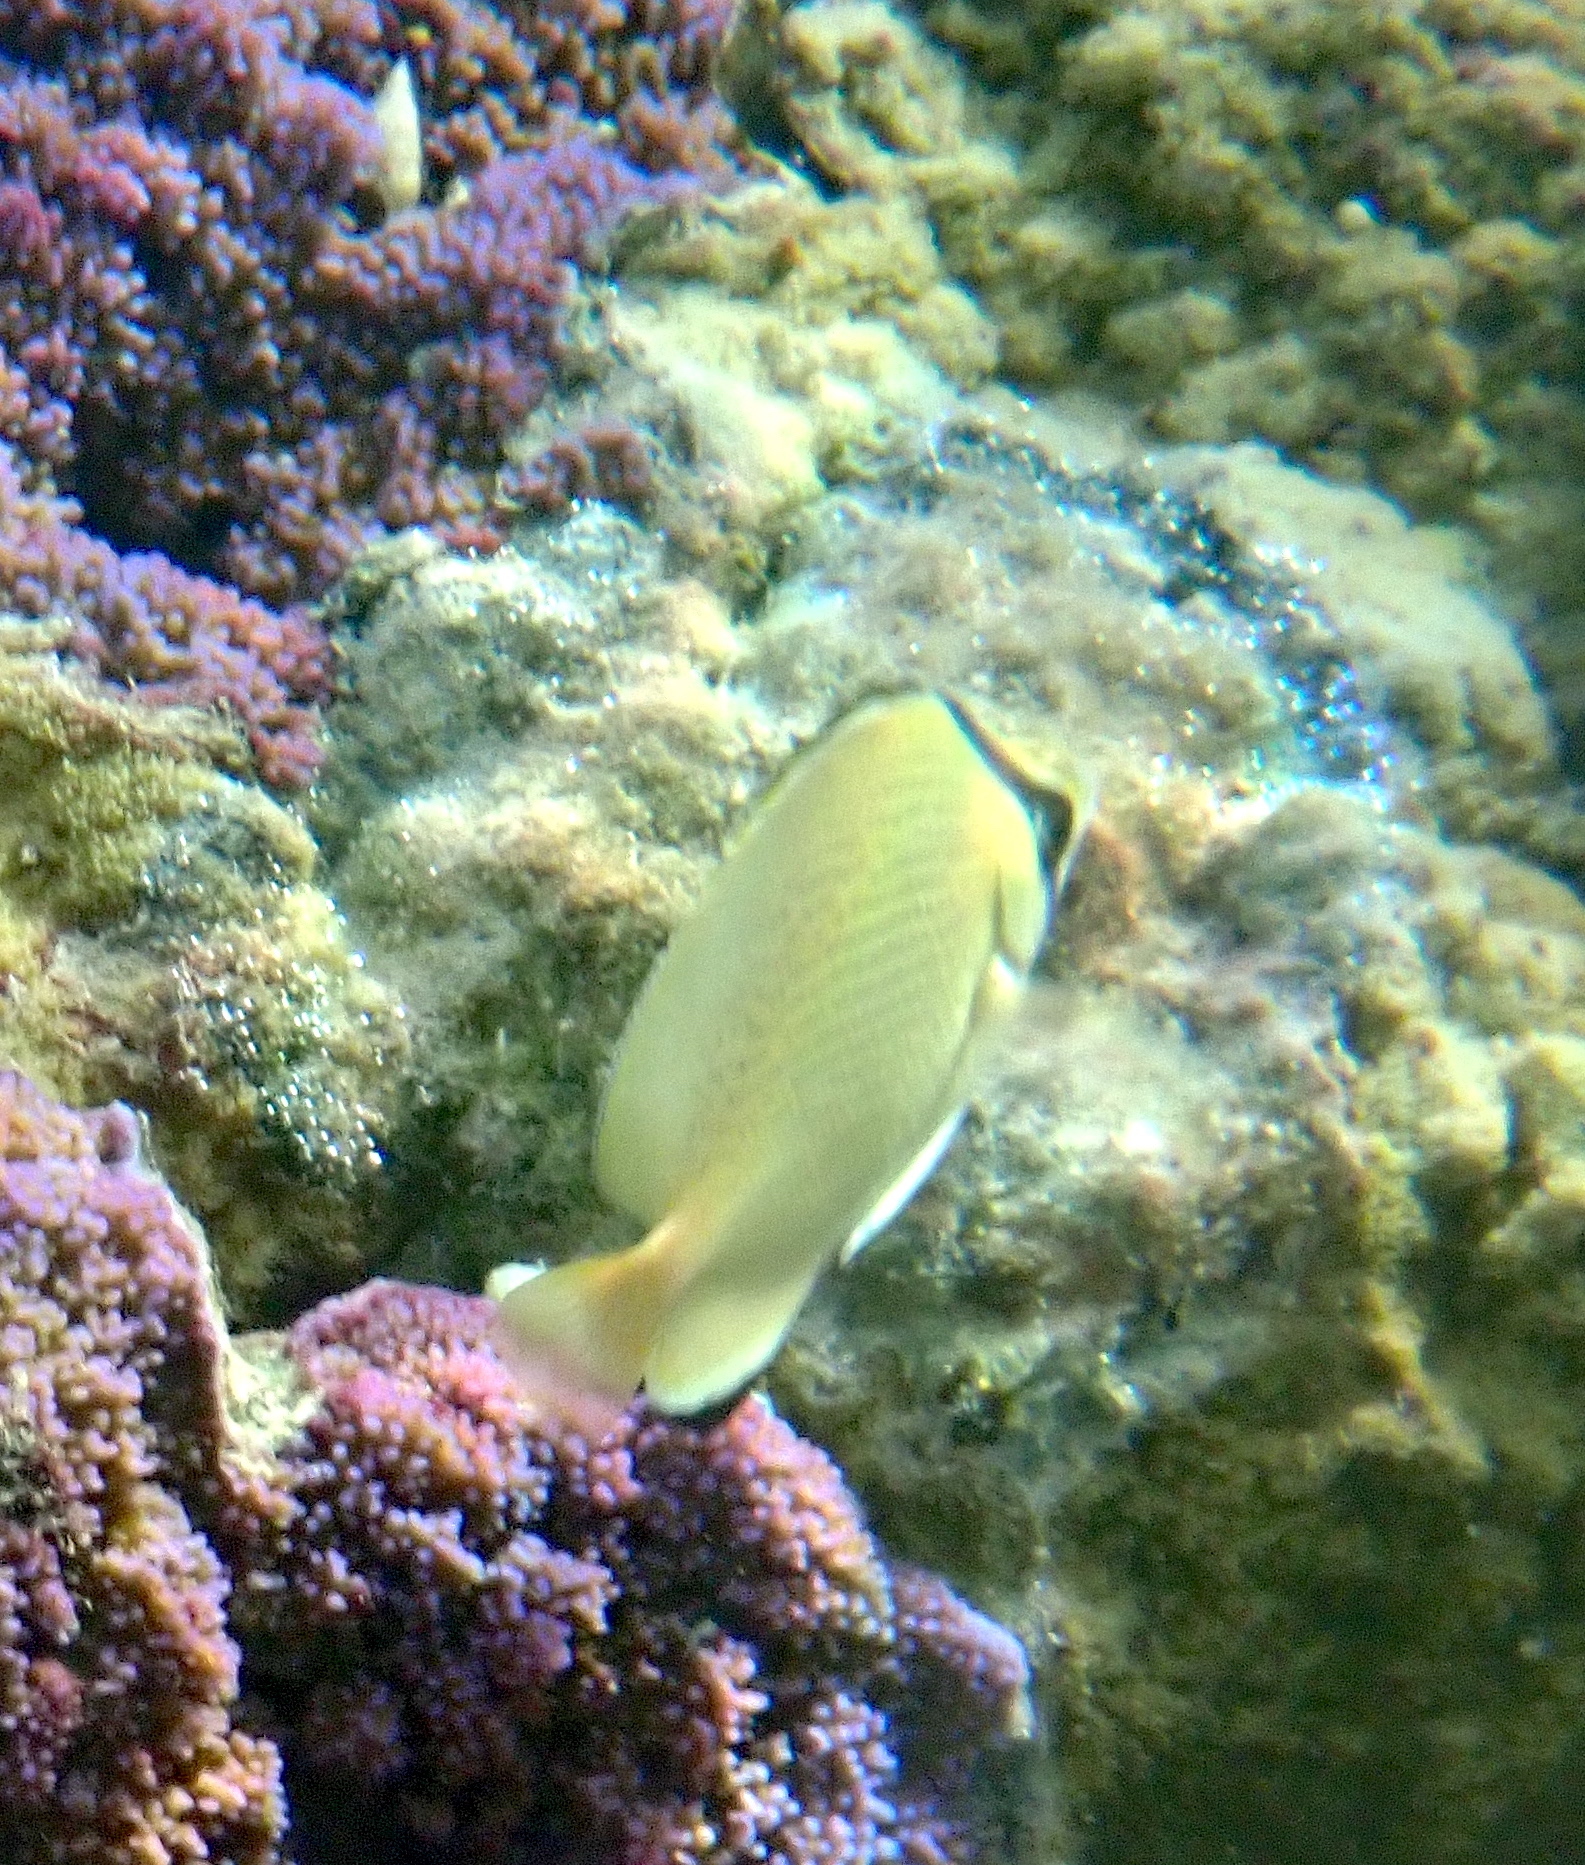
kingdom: Animalia
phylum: Chordata
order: Perciformes
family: Chaetodontidae
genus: Chaetodon
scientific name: Chaetodon citrinellus
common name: Speckled butterflyfish
